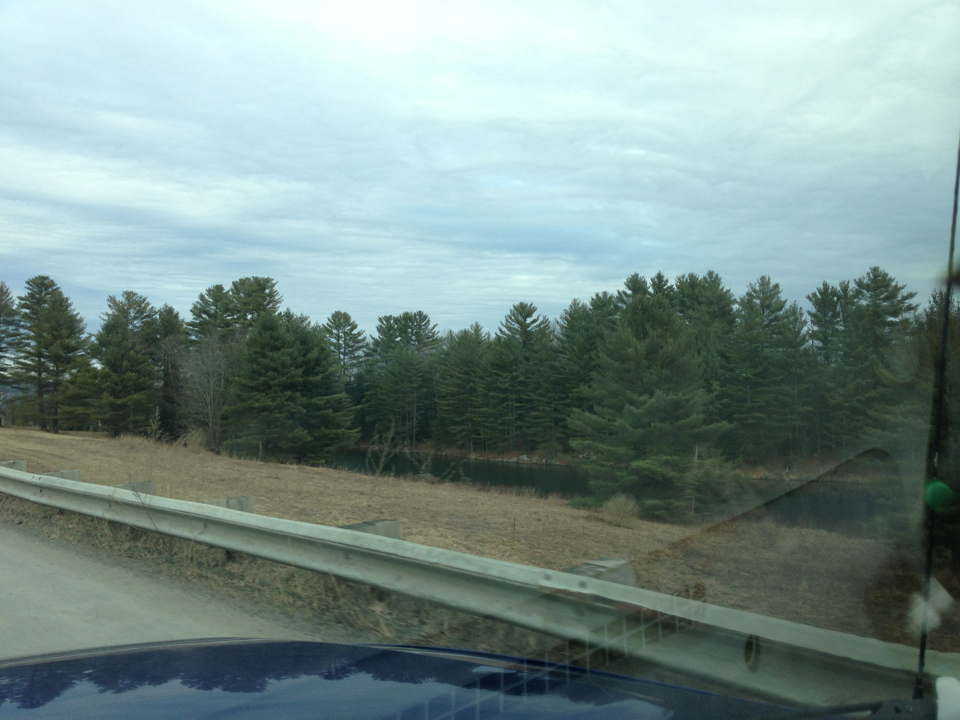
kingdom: Plantae
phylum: Tracheophyta
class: Pinopsida
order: Pinales
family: Pinaceae
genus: Pinus
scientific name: Pinus strobus
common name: Weymouth pine
